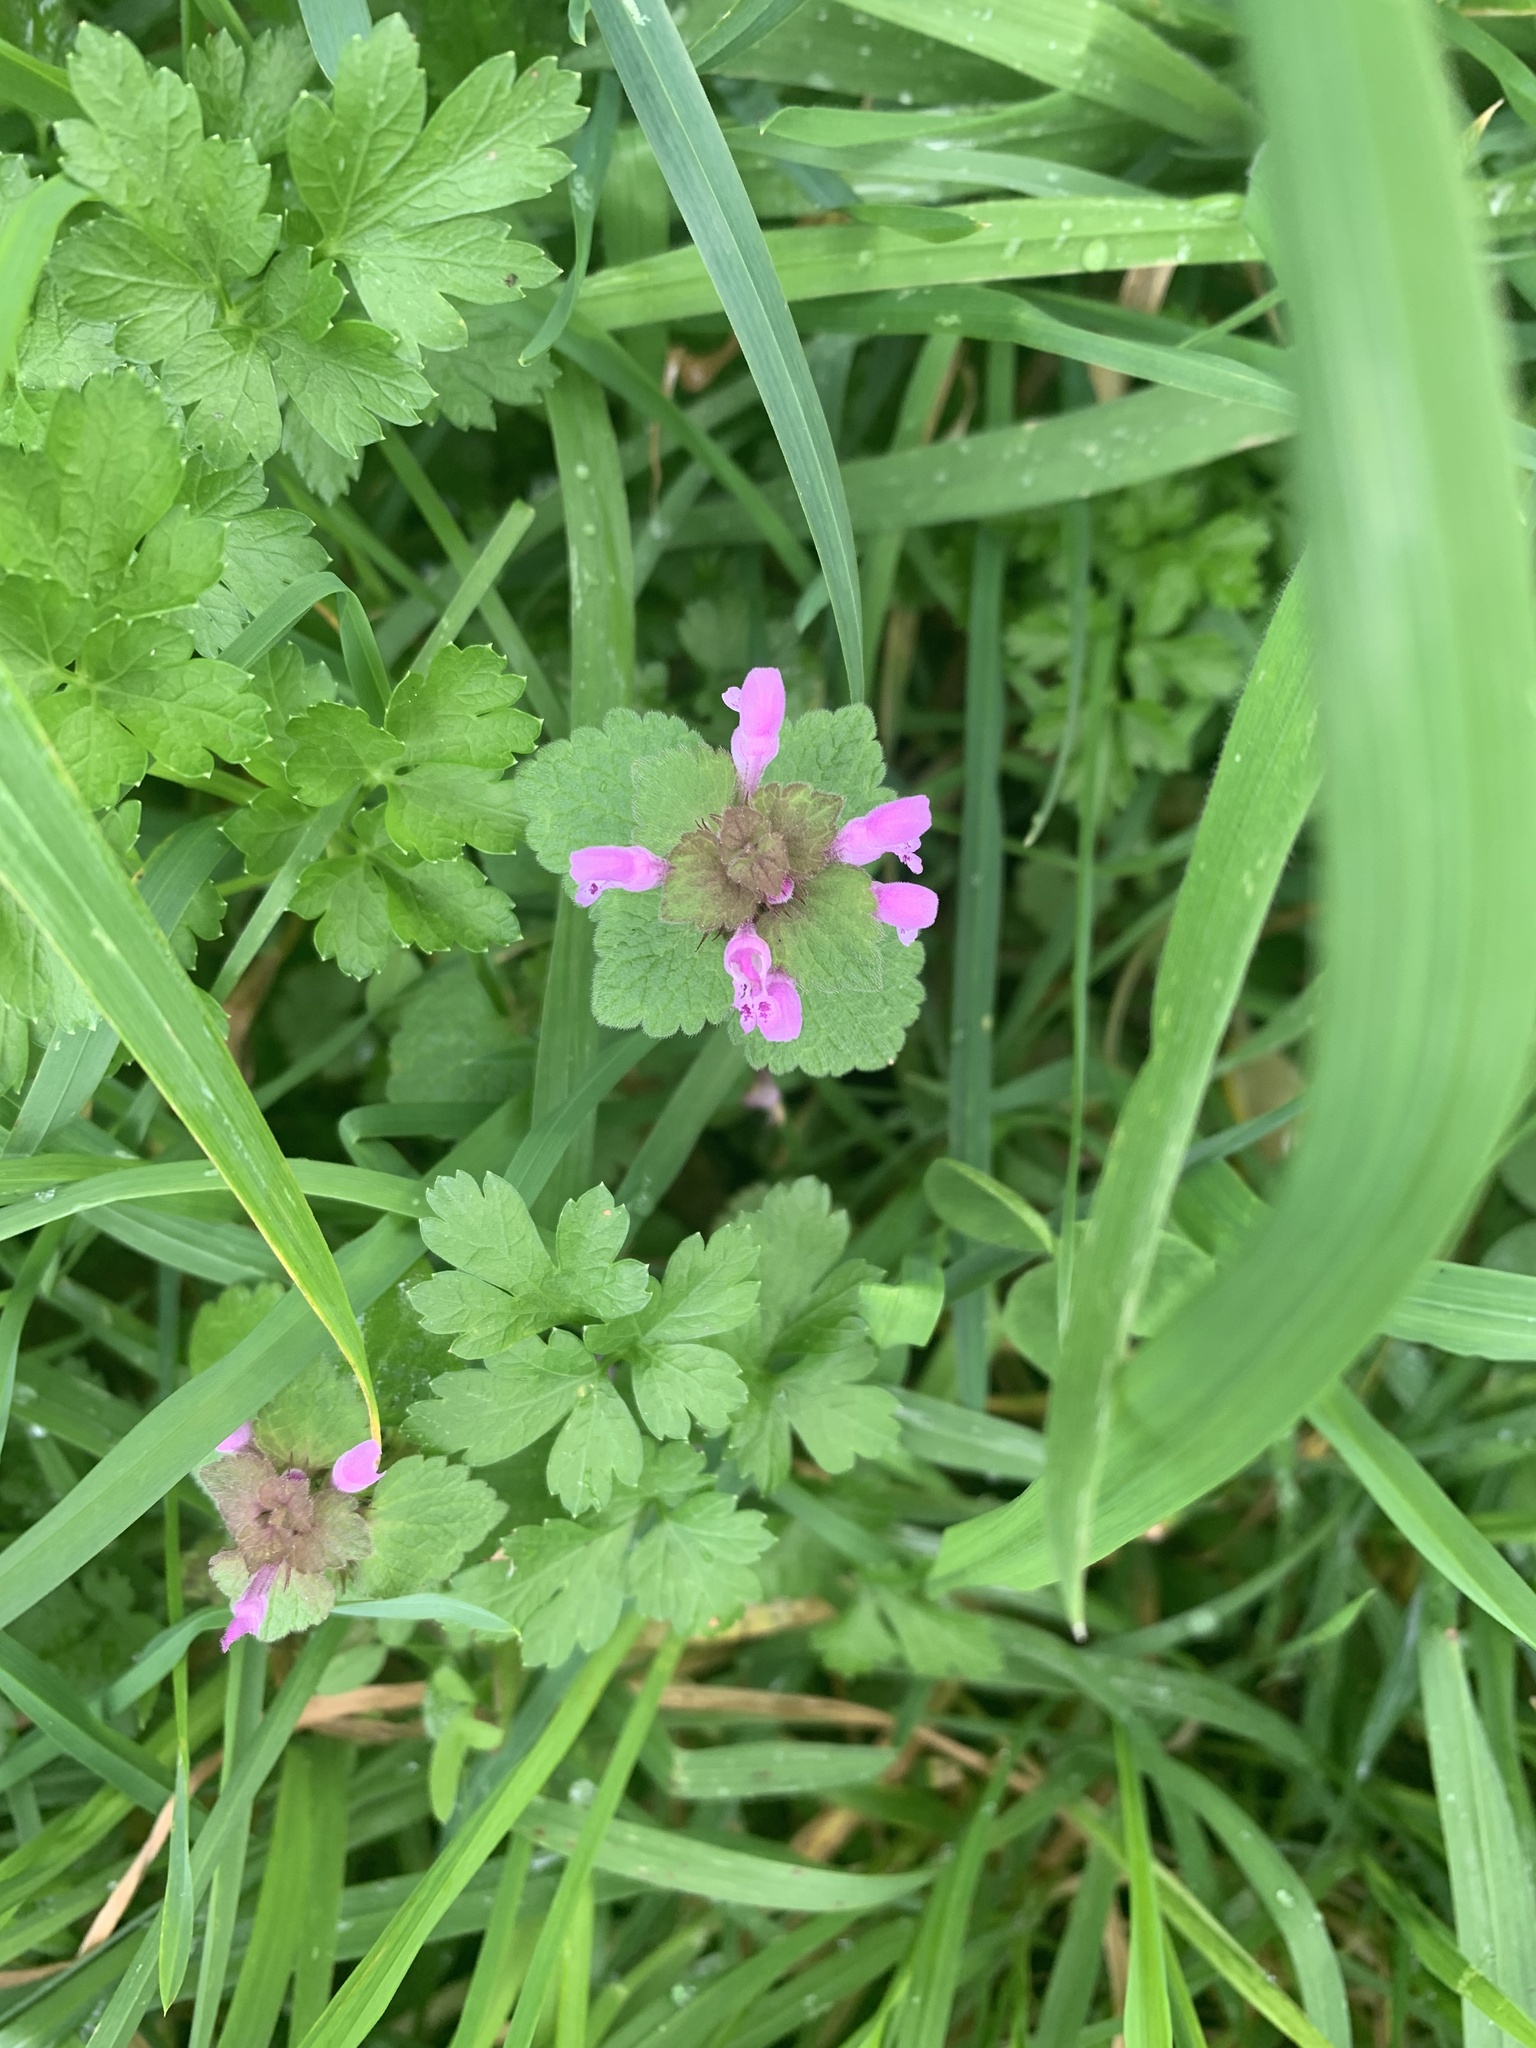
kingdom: Plantae
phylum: Tracheophyta
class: Magnoliopsida
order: Lamiales
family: Lamiaceae
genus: Lamium
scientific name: Lamium purpureum
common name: Red dead-nettle
